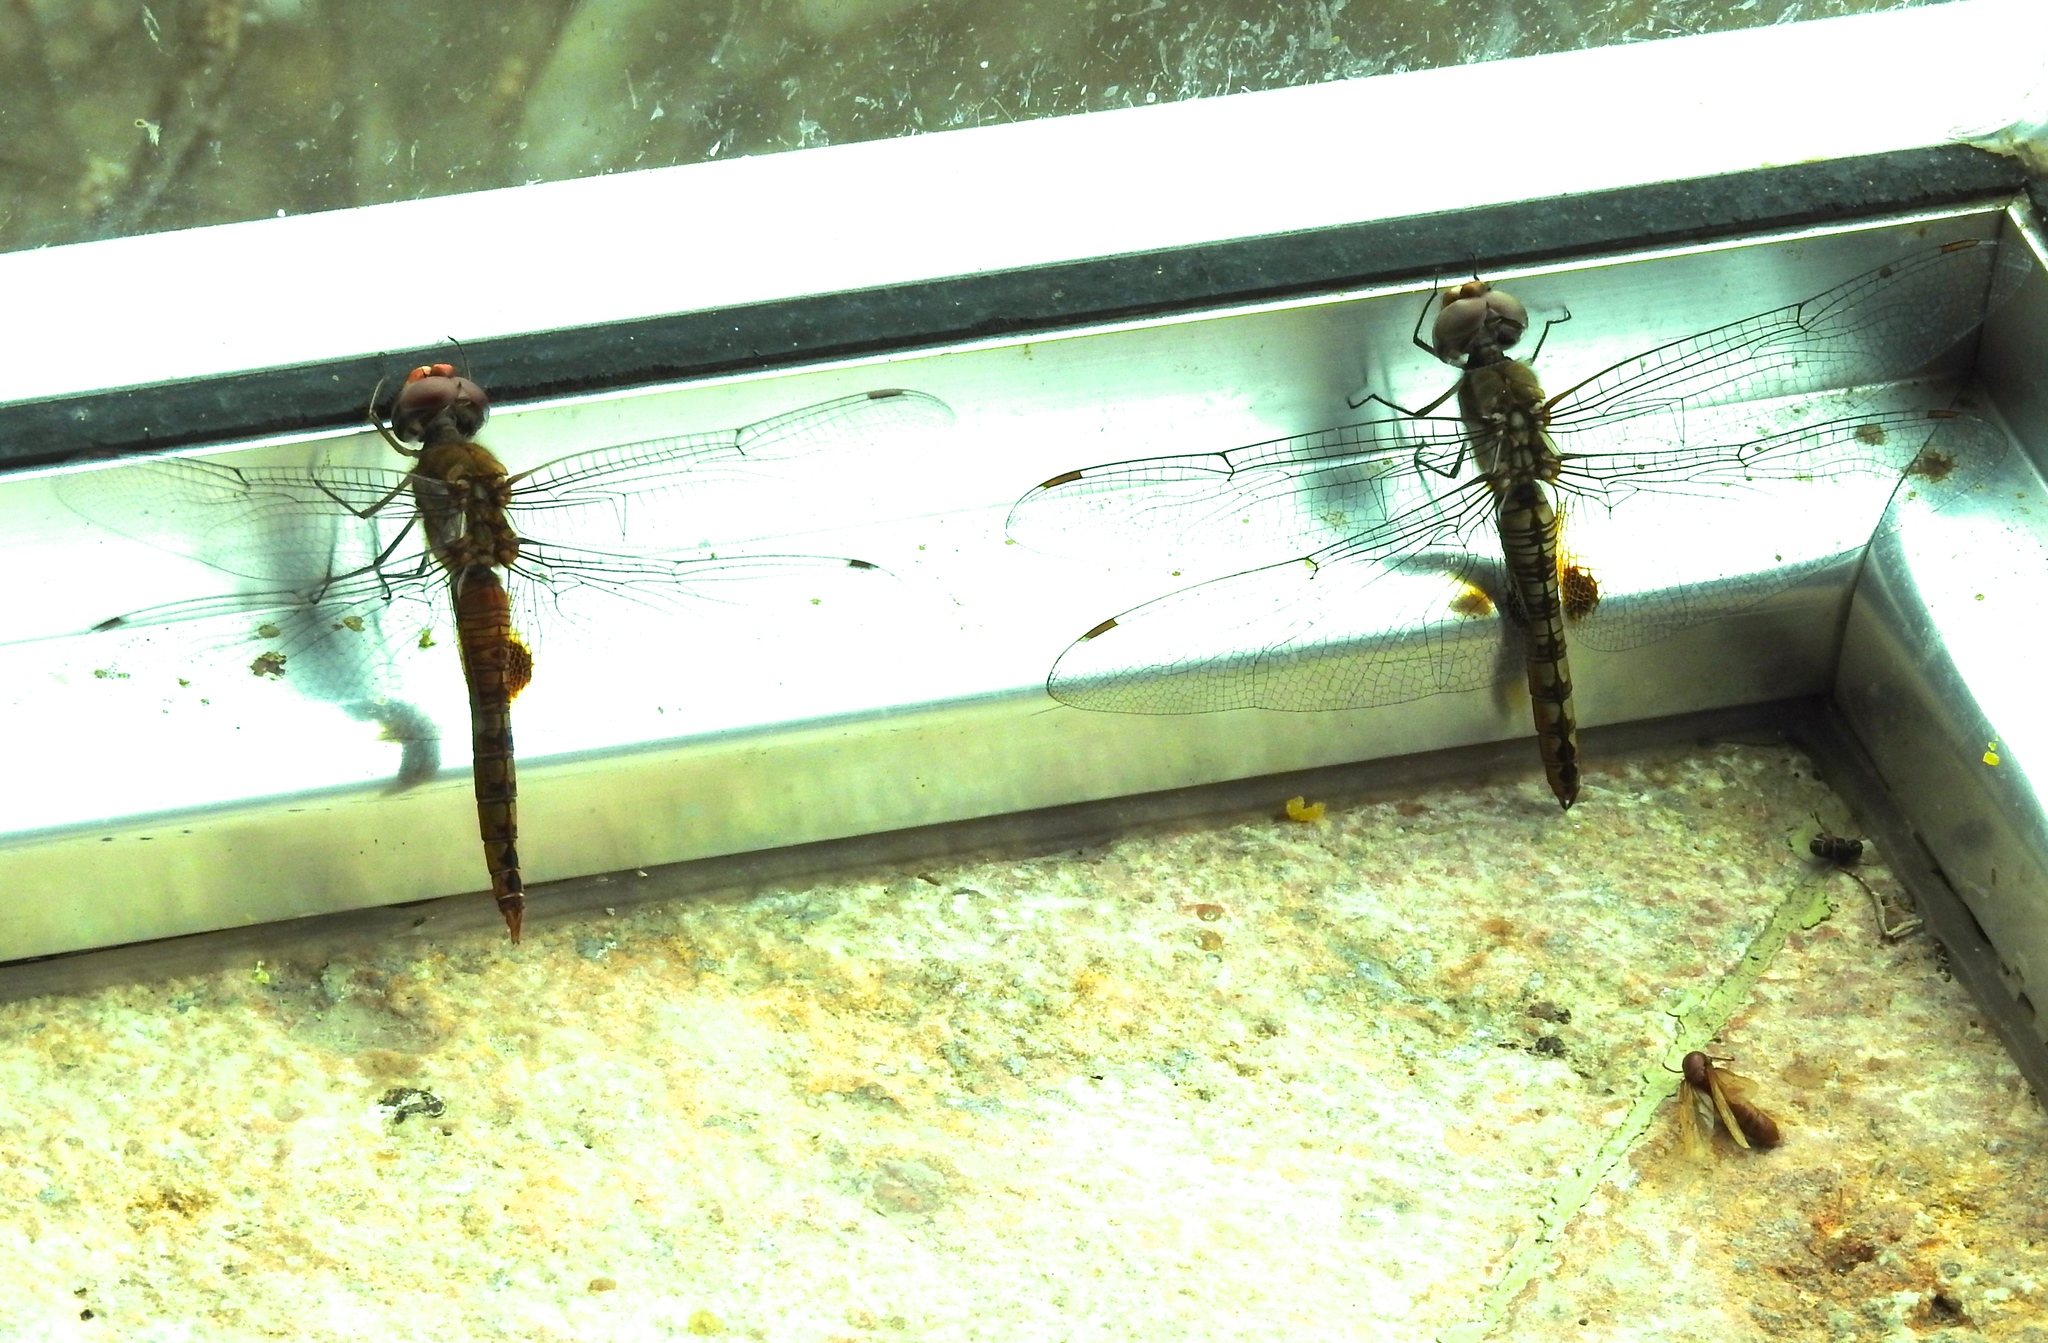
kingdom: Animalia
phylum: Arthropoda
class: Insecta
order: Odonata
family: Libellulidae
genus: Pantala
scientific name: Pantala hymenaea
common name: Spot-winged glider
